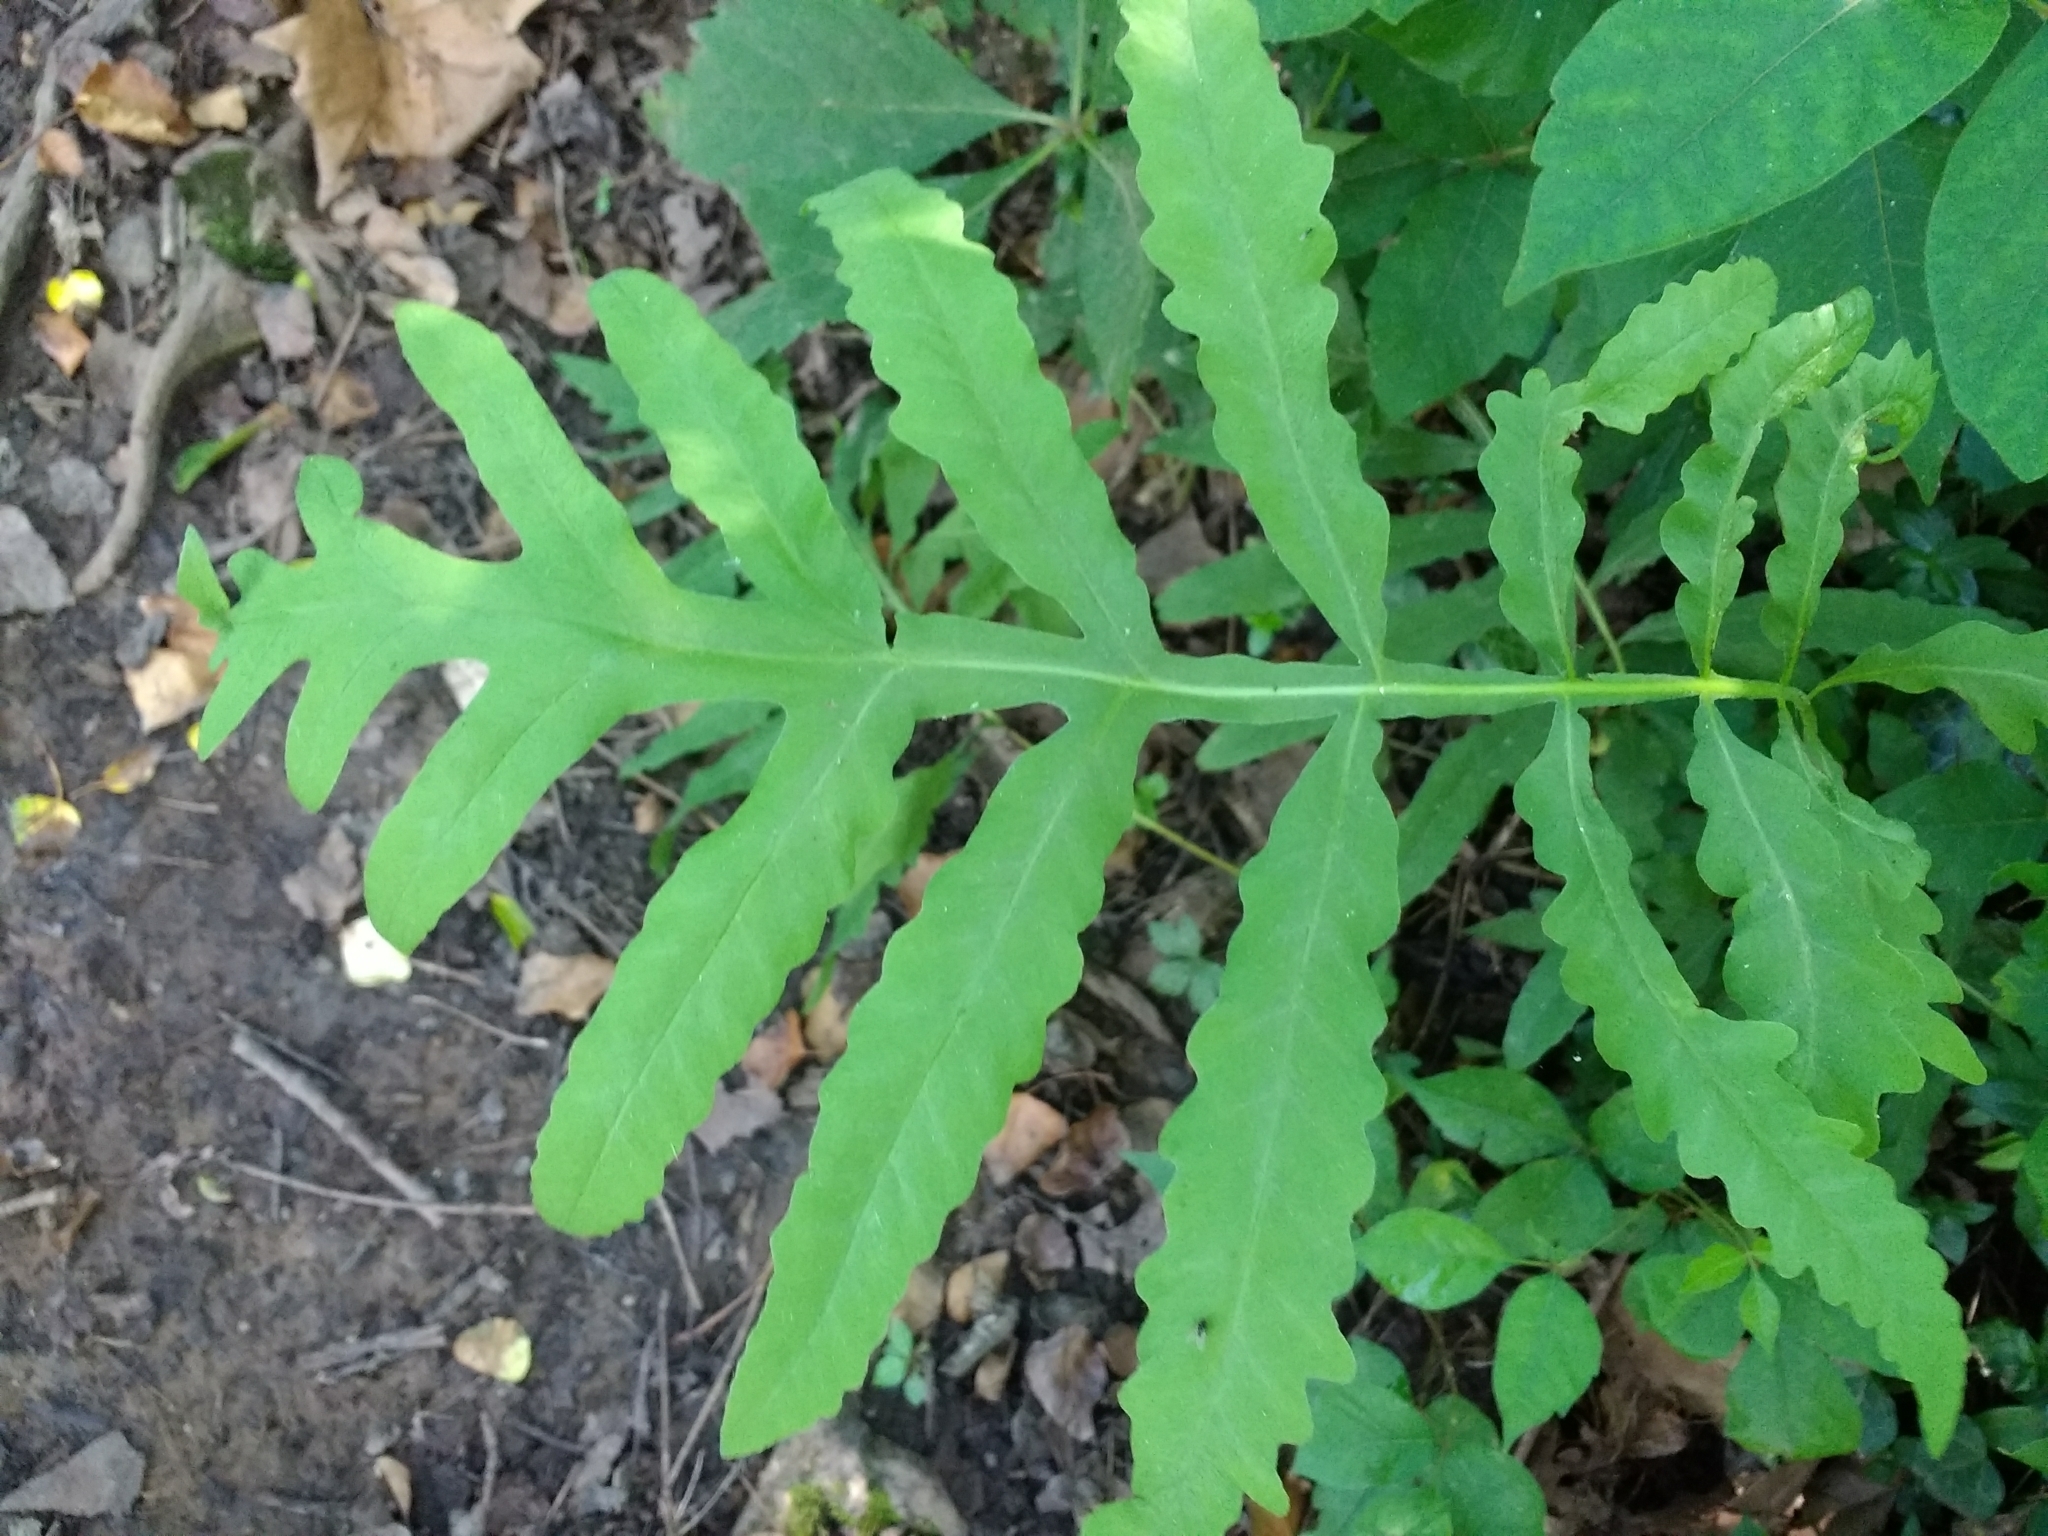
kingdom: Plantae
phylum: Tracheophyta
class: Polypodiopsida
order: Polypodiales
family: Onocleaceae
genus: Onoclea
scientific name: Onoclea sensibilis
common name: Sensitive fern
